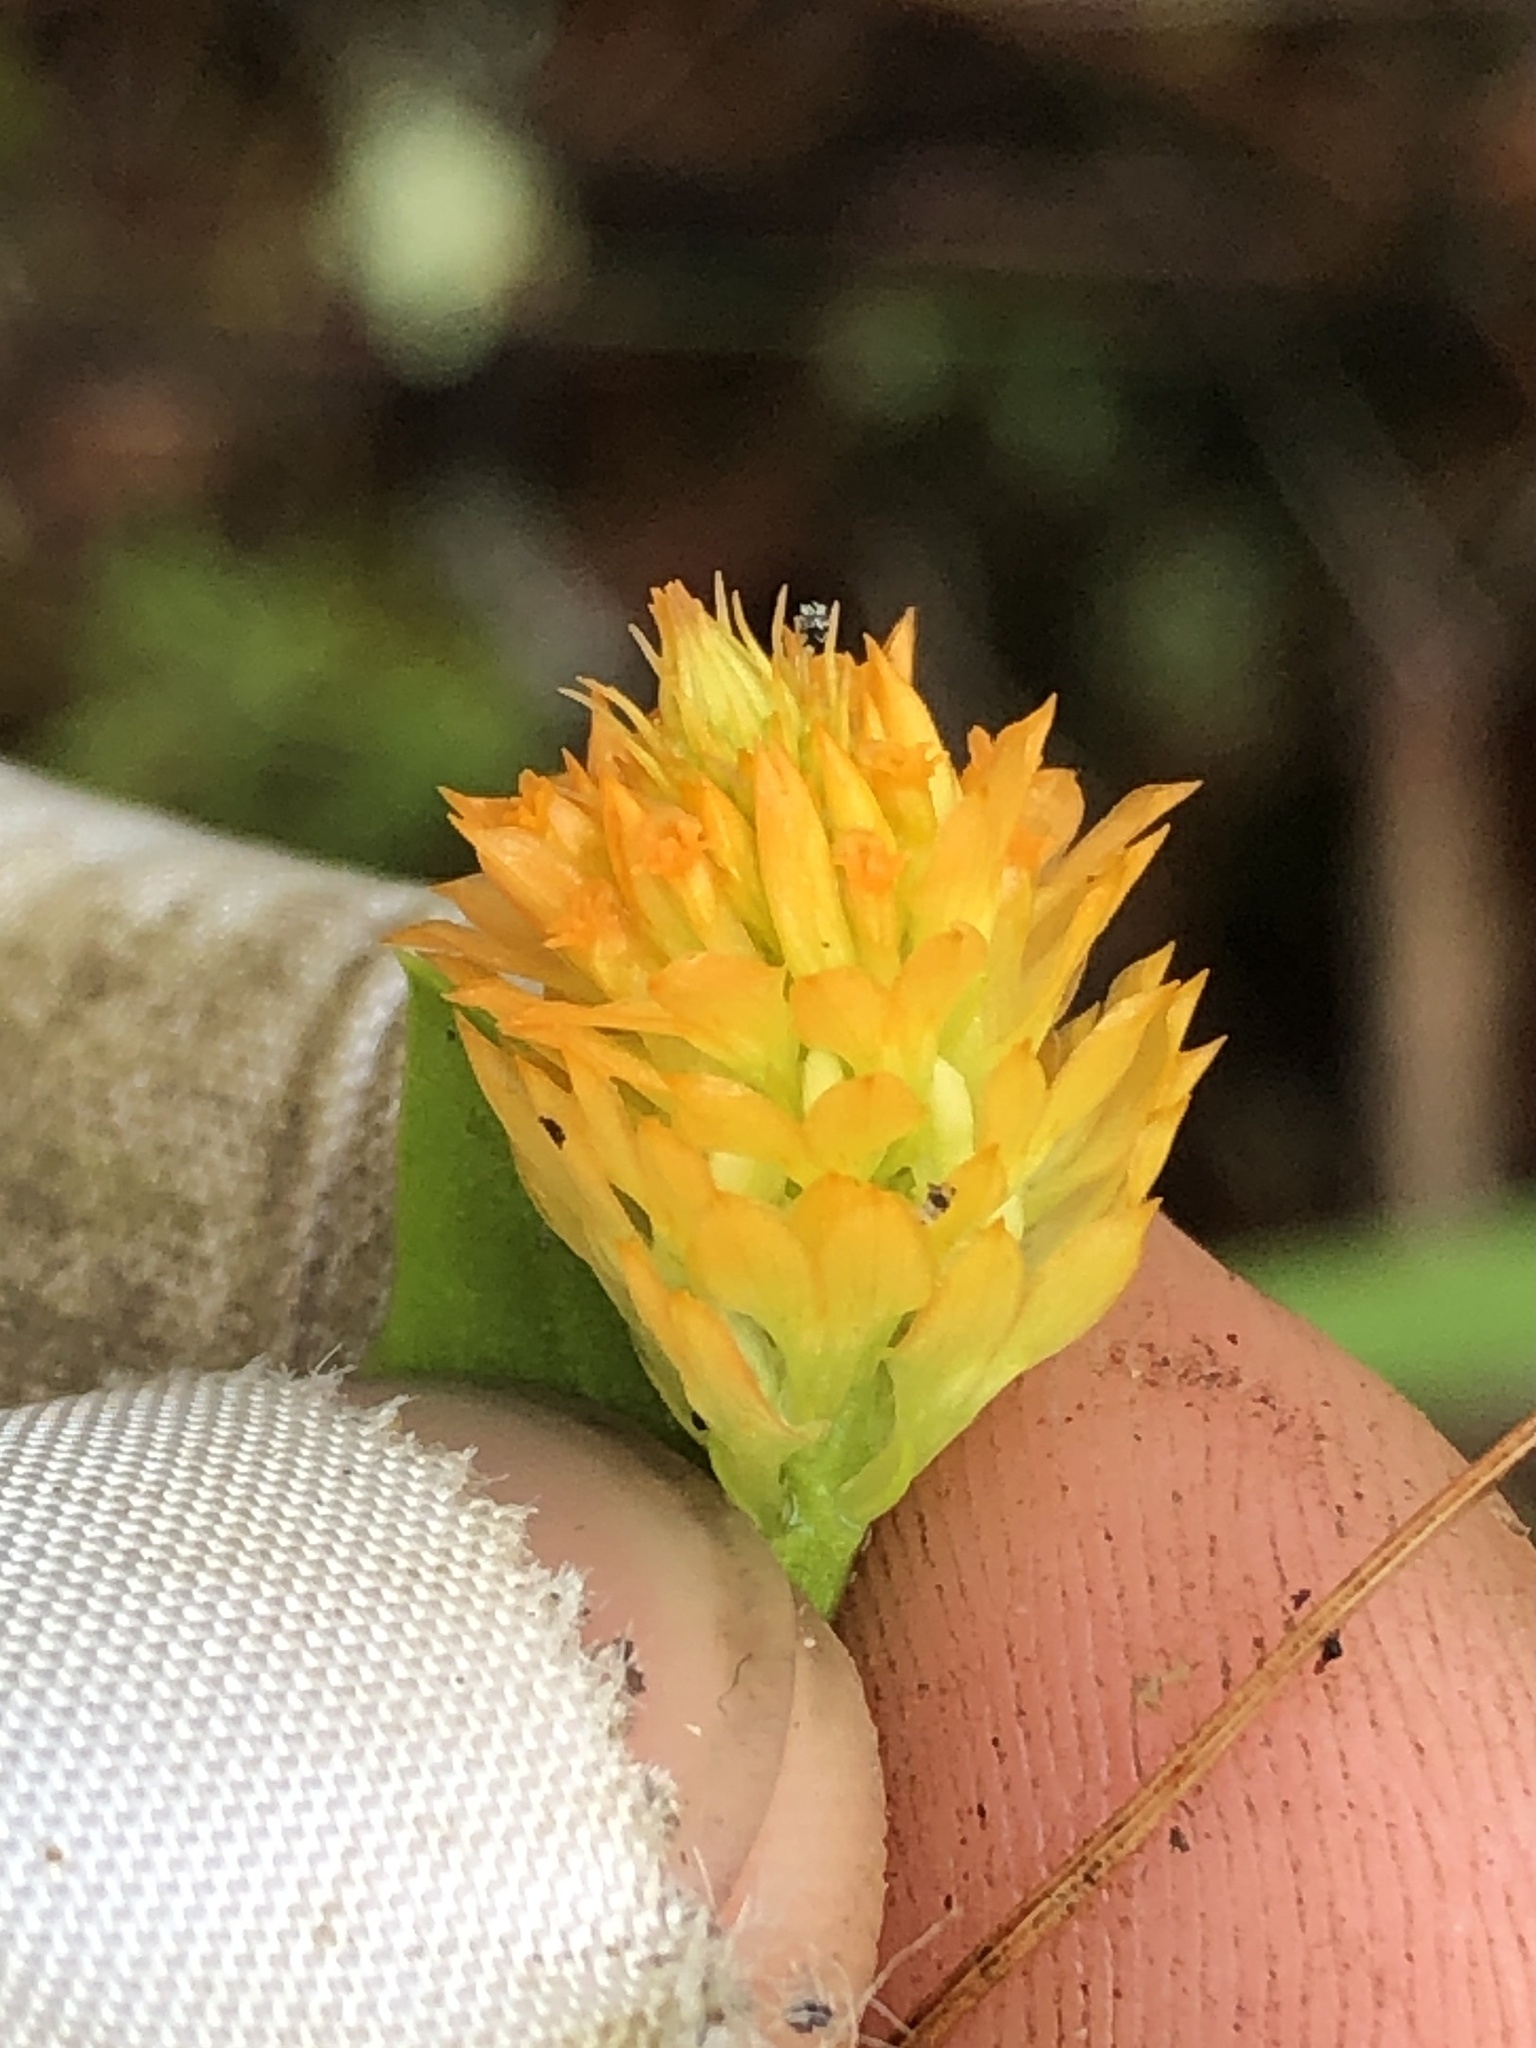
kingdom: Plantae
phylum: Tracheophyta
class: Magnoliopsida
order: Fabales
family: Polygalaceae
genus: Polygala
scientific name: Polygala lutea
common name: Orange milkwort
